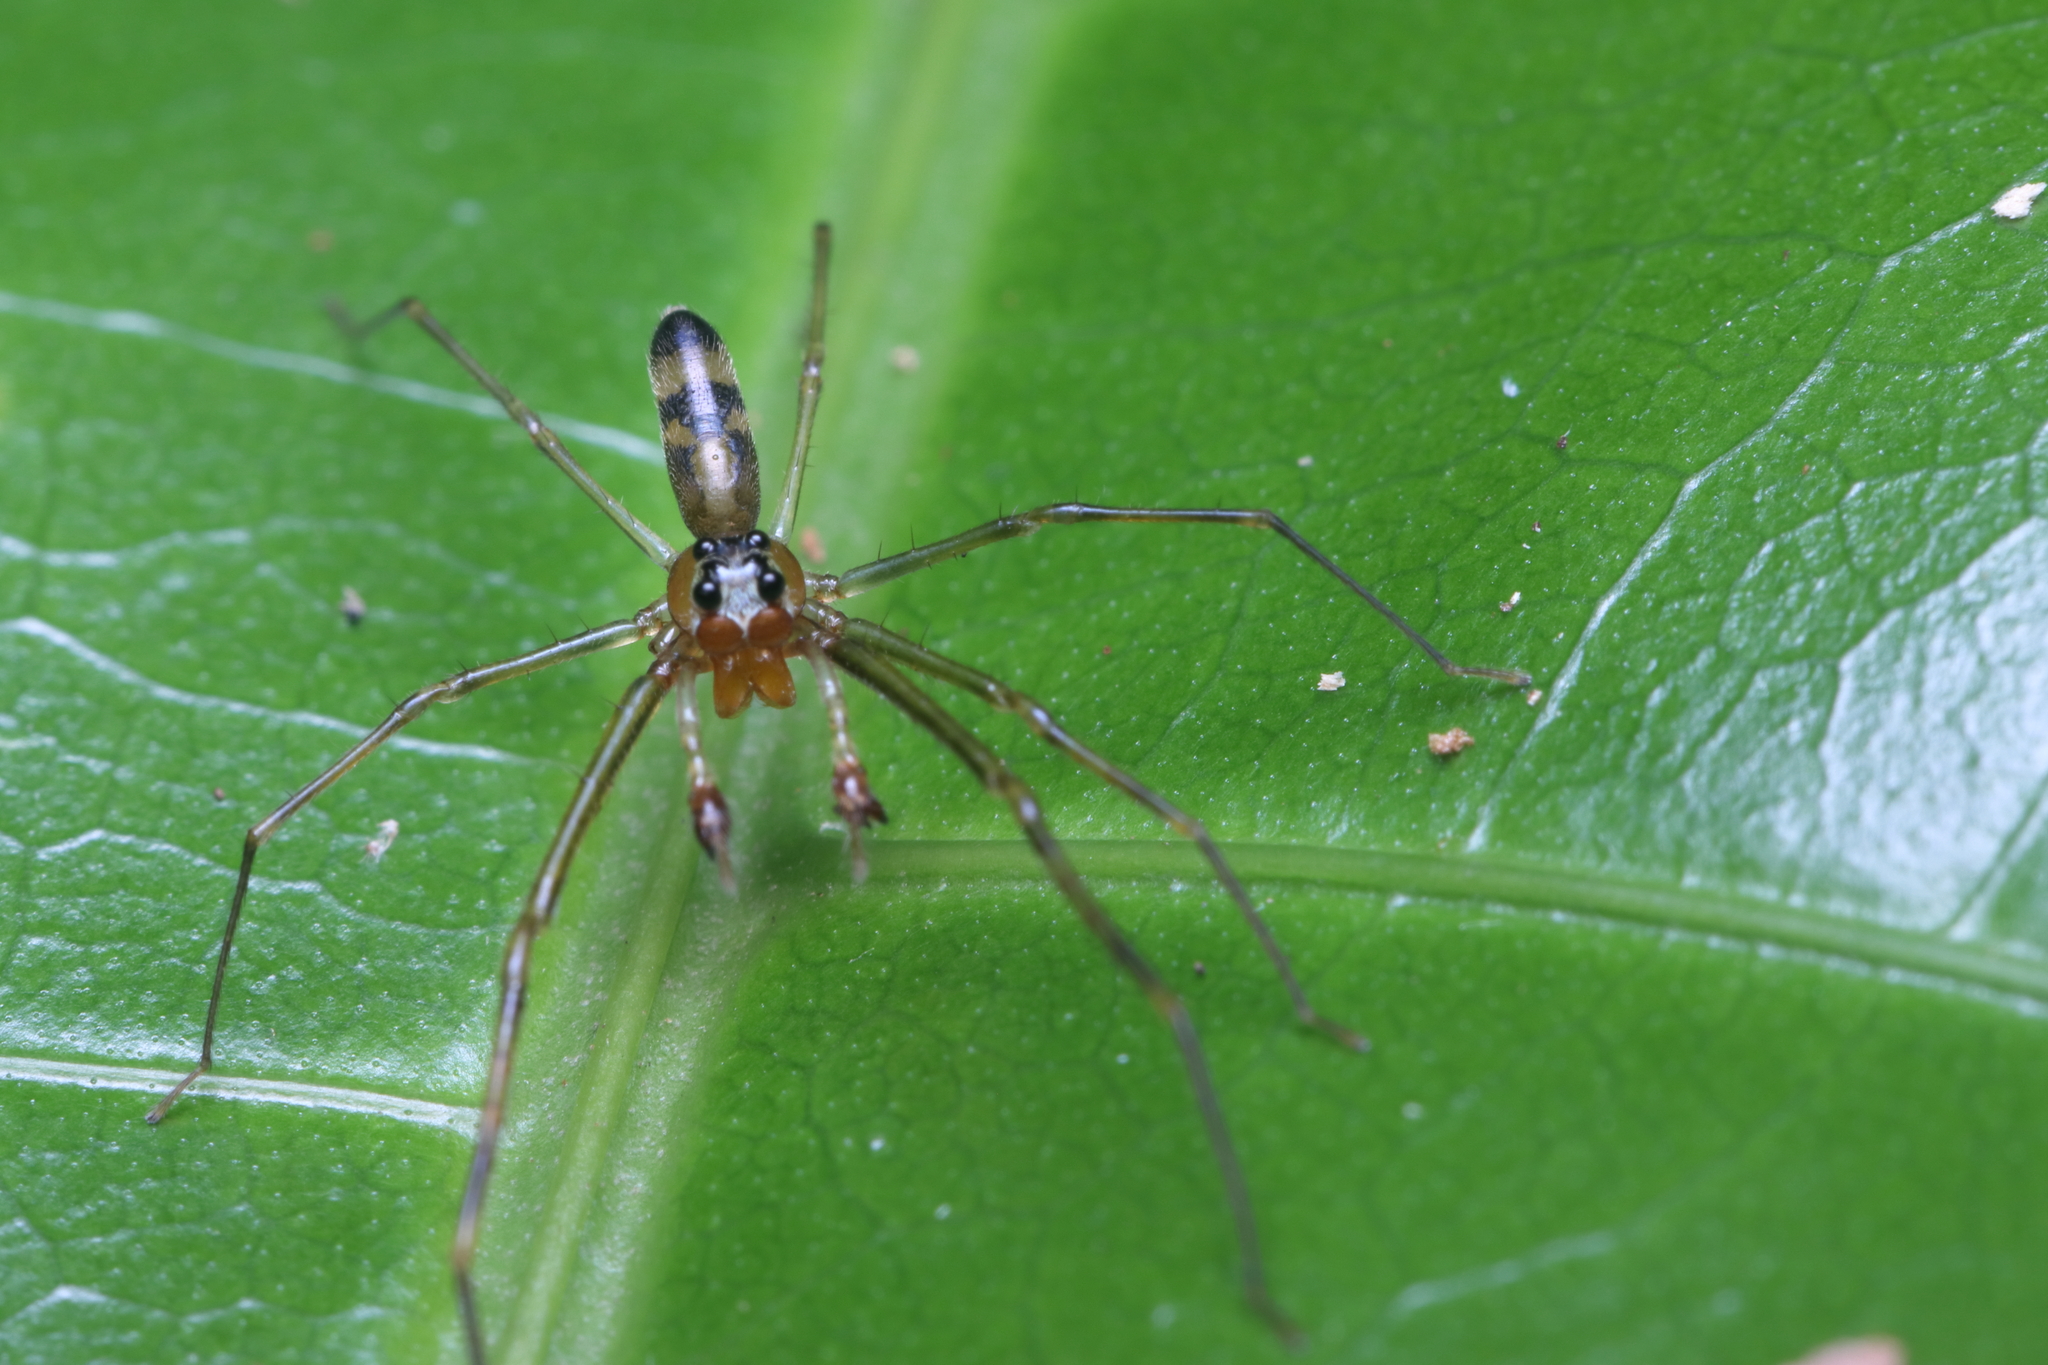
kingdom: Animalia
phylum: Arthropoda
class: Arachnida
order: Araneae
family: Salticidae
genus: Lyssomanes
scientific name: Lyssomanes longipes
